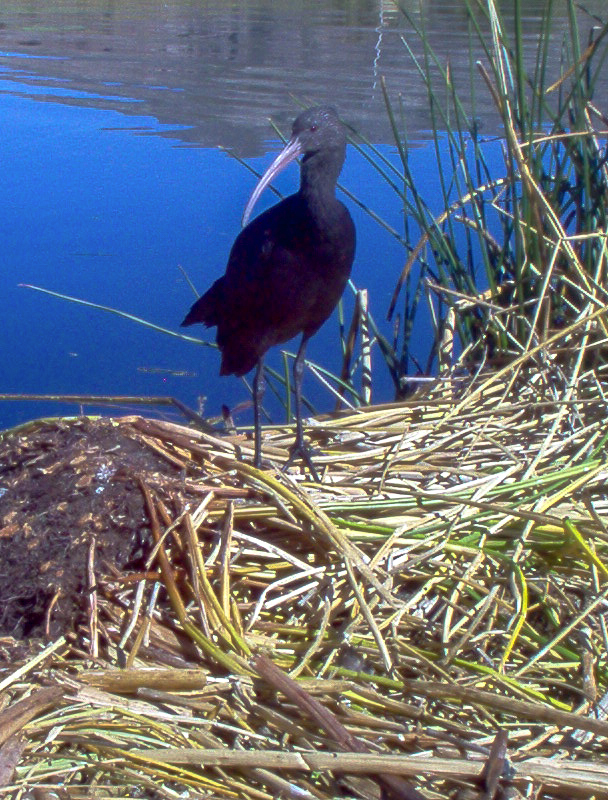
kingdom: Animalia
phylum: Chordata
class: Aves
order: Pelecaniformes
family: Threskiornithidae
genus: Plegadis
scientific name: Plegadis ridgwayi
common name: Puna ibis
